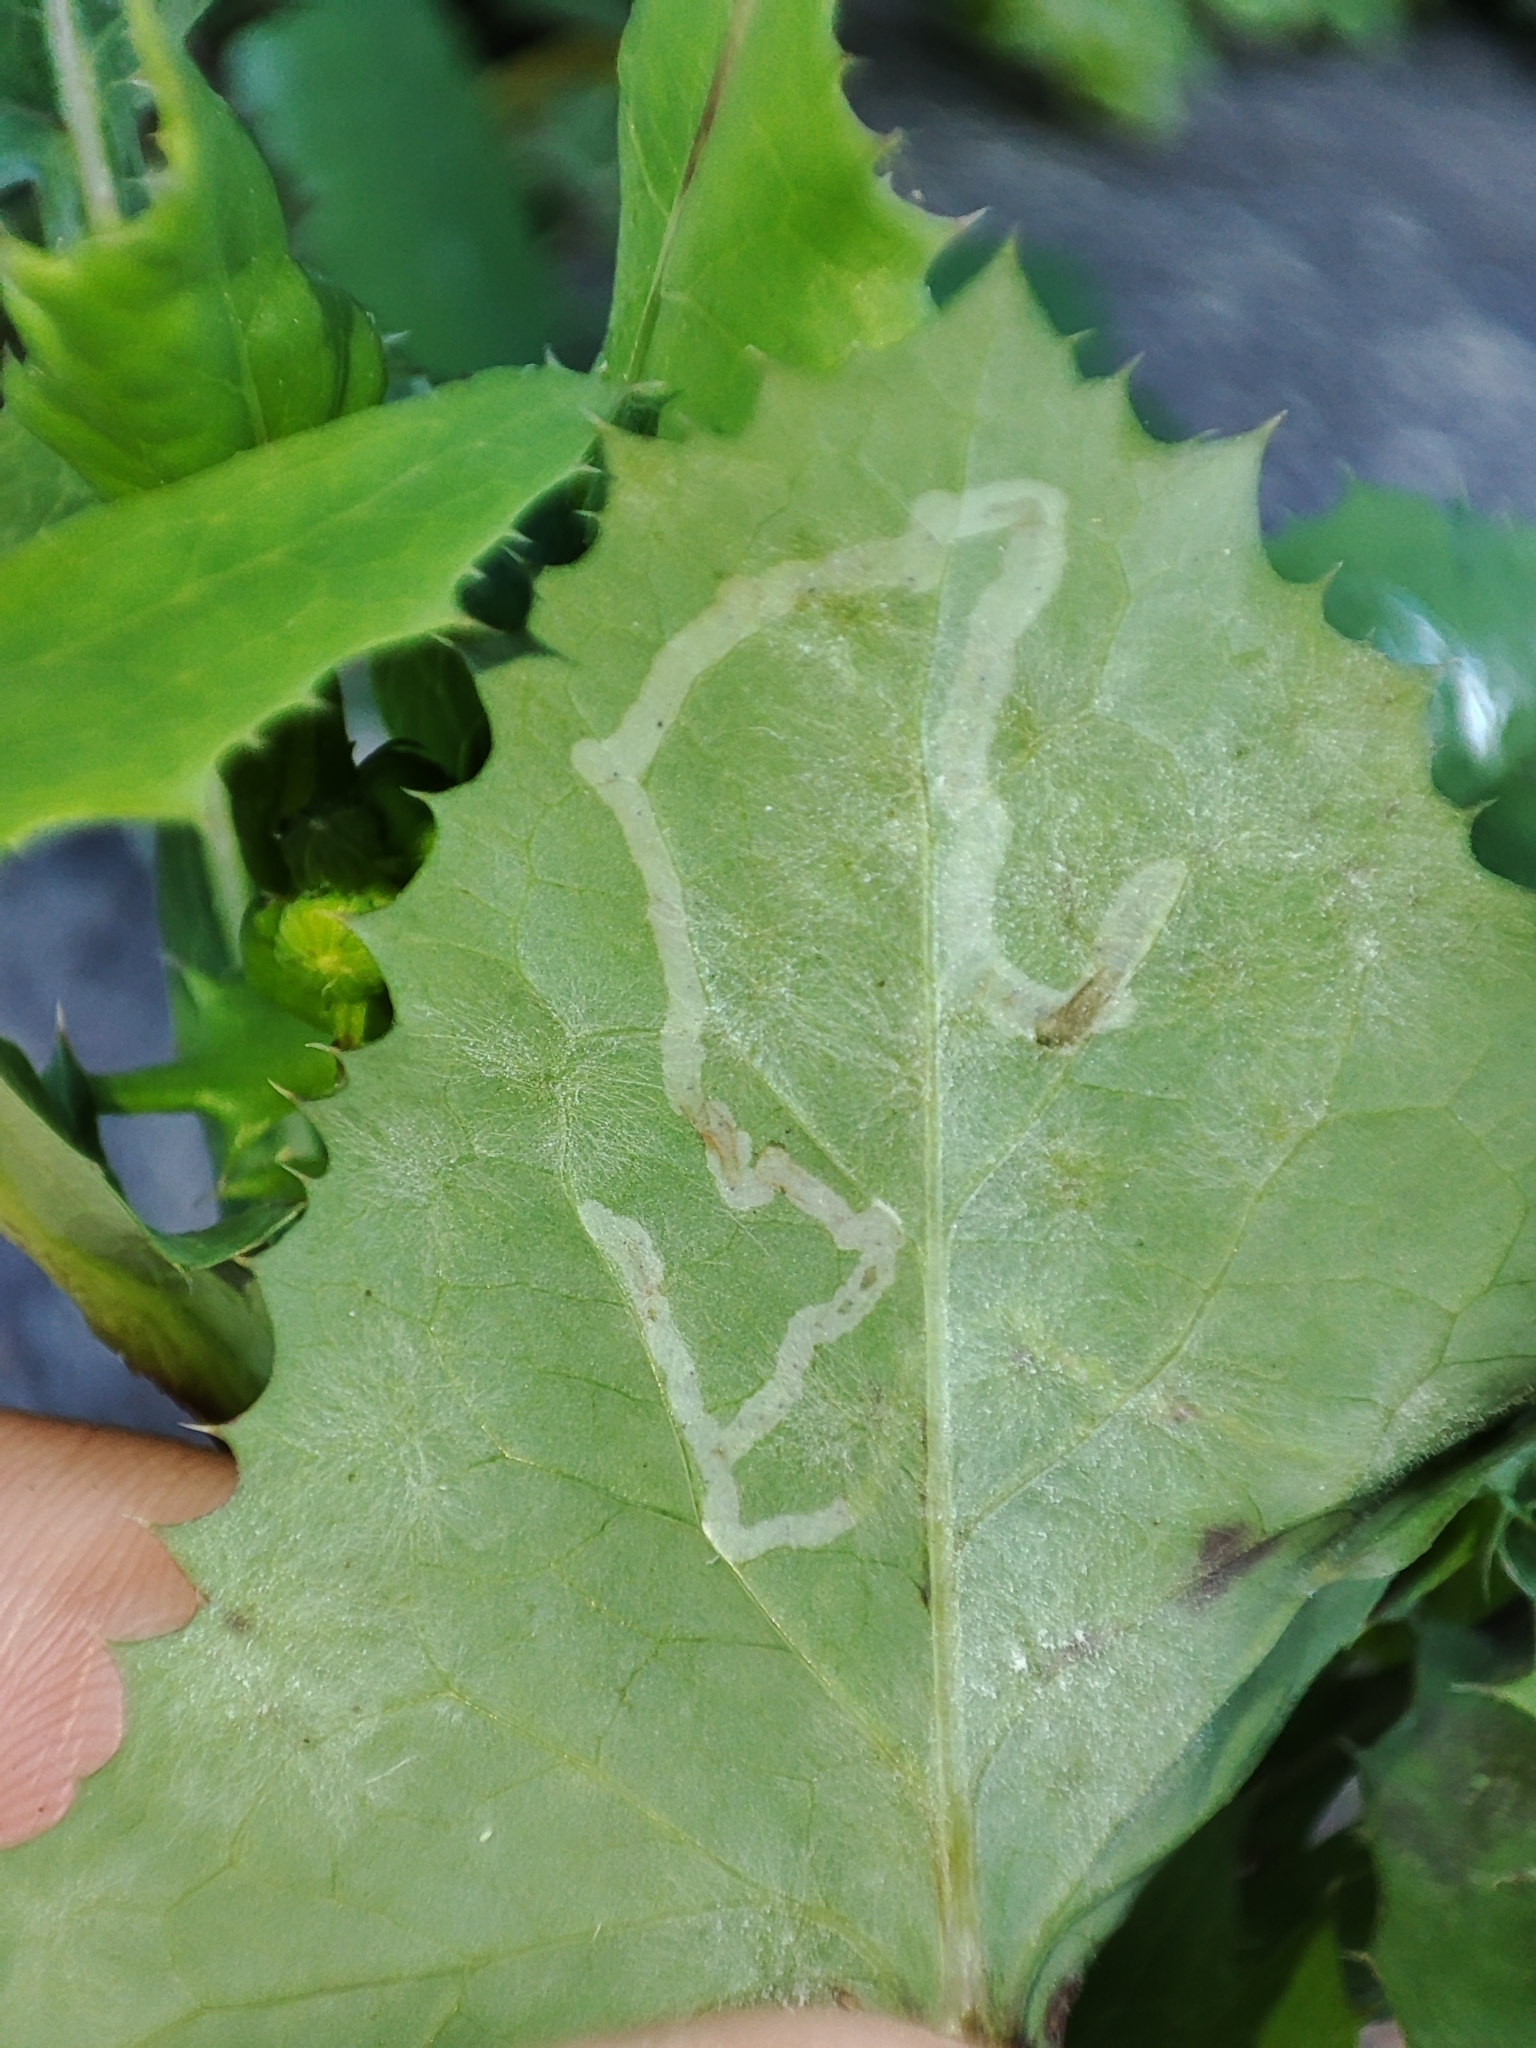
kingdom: Fungi
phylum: Ascomycota
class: Leotiomycetes
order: Helotiales
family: Erysiphaceae
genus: Golovinomyces
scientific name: Golovinomyces sonchicola
